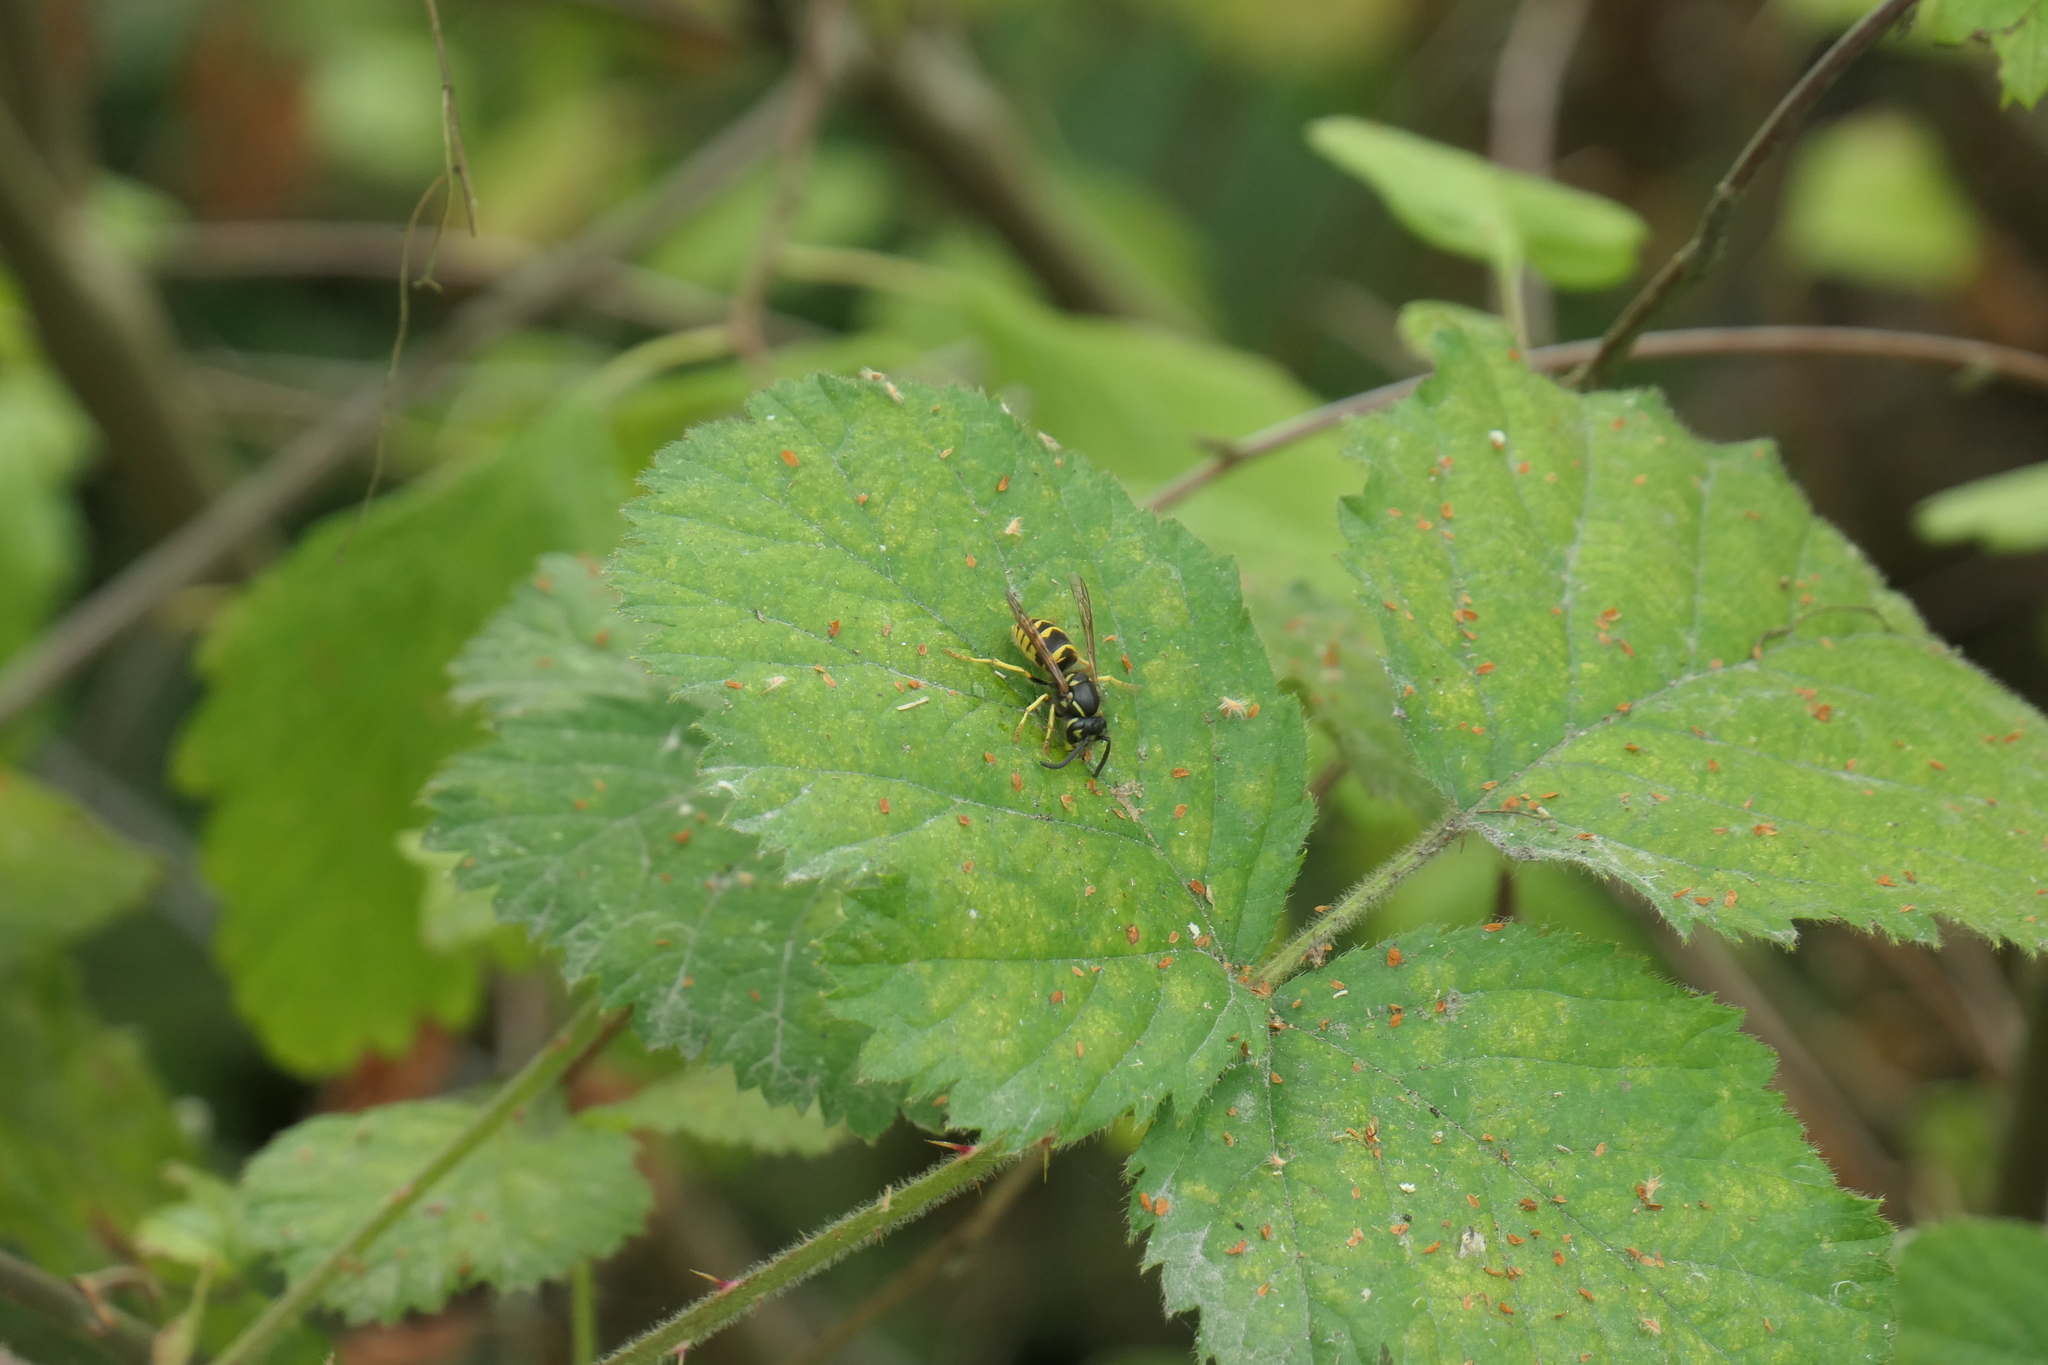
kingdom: Animalia
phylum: Arthropoda
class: Insecta
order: Hymenoptera
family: Vespidae
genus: Vespula
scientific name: Vespula alascensis
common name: Alaska yellowjacket
